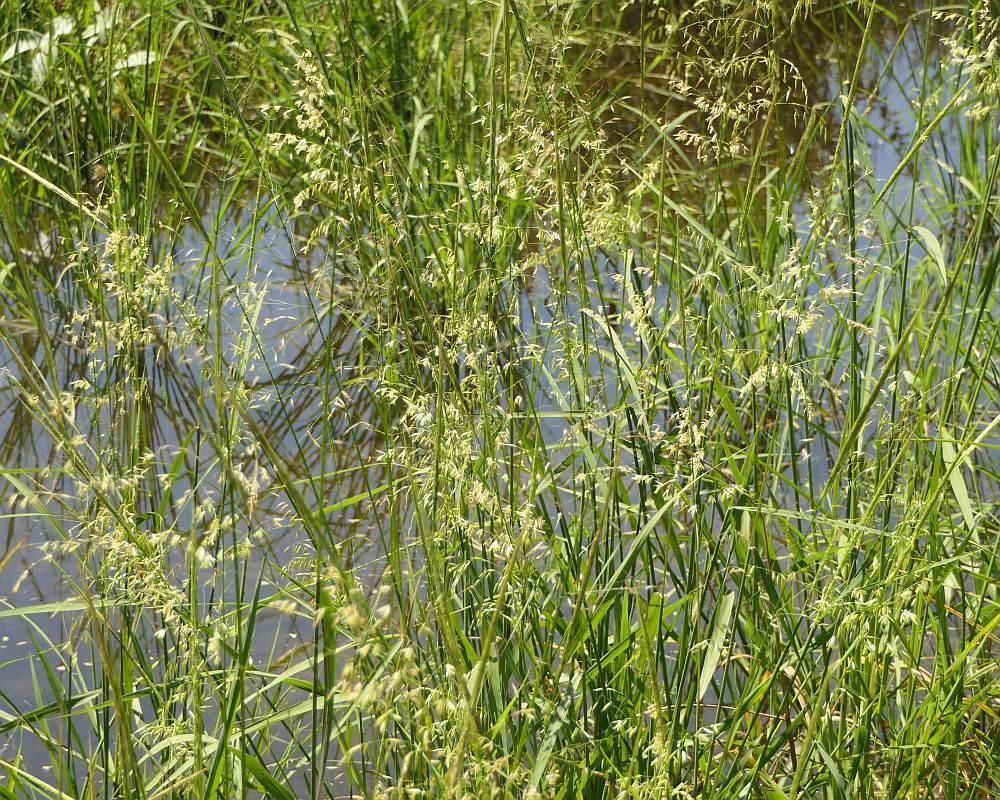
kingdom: Plantae
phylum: Tracheophyta
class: Liliopsida
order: Poales
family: Poaceae
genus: Zizania
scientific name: Zizania palustris
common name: Northern wild rice
